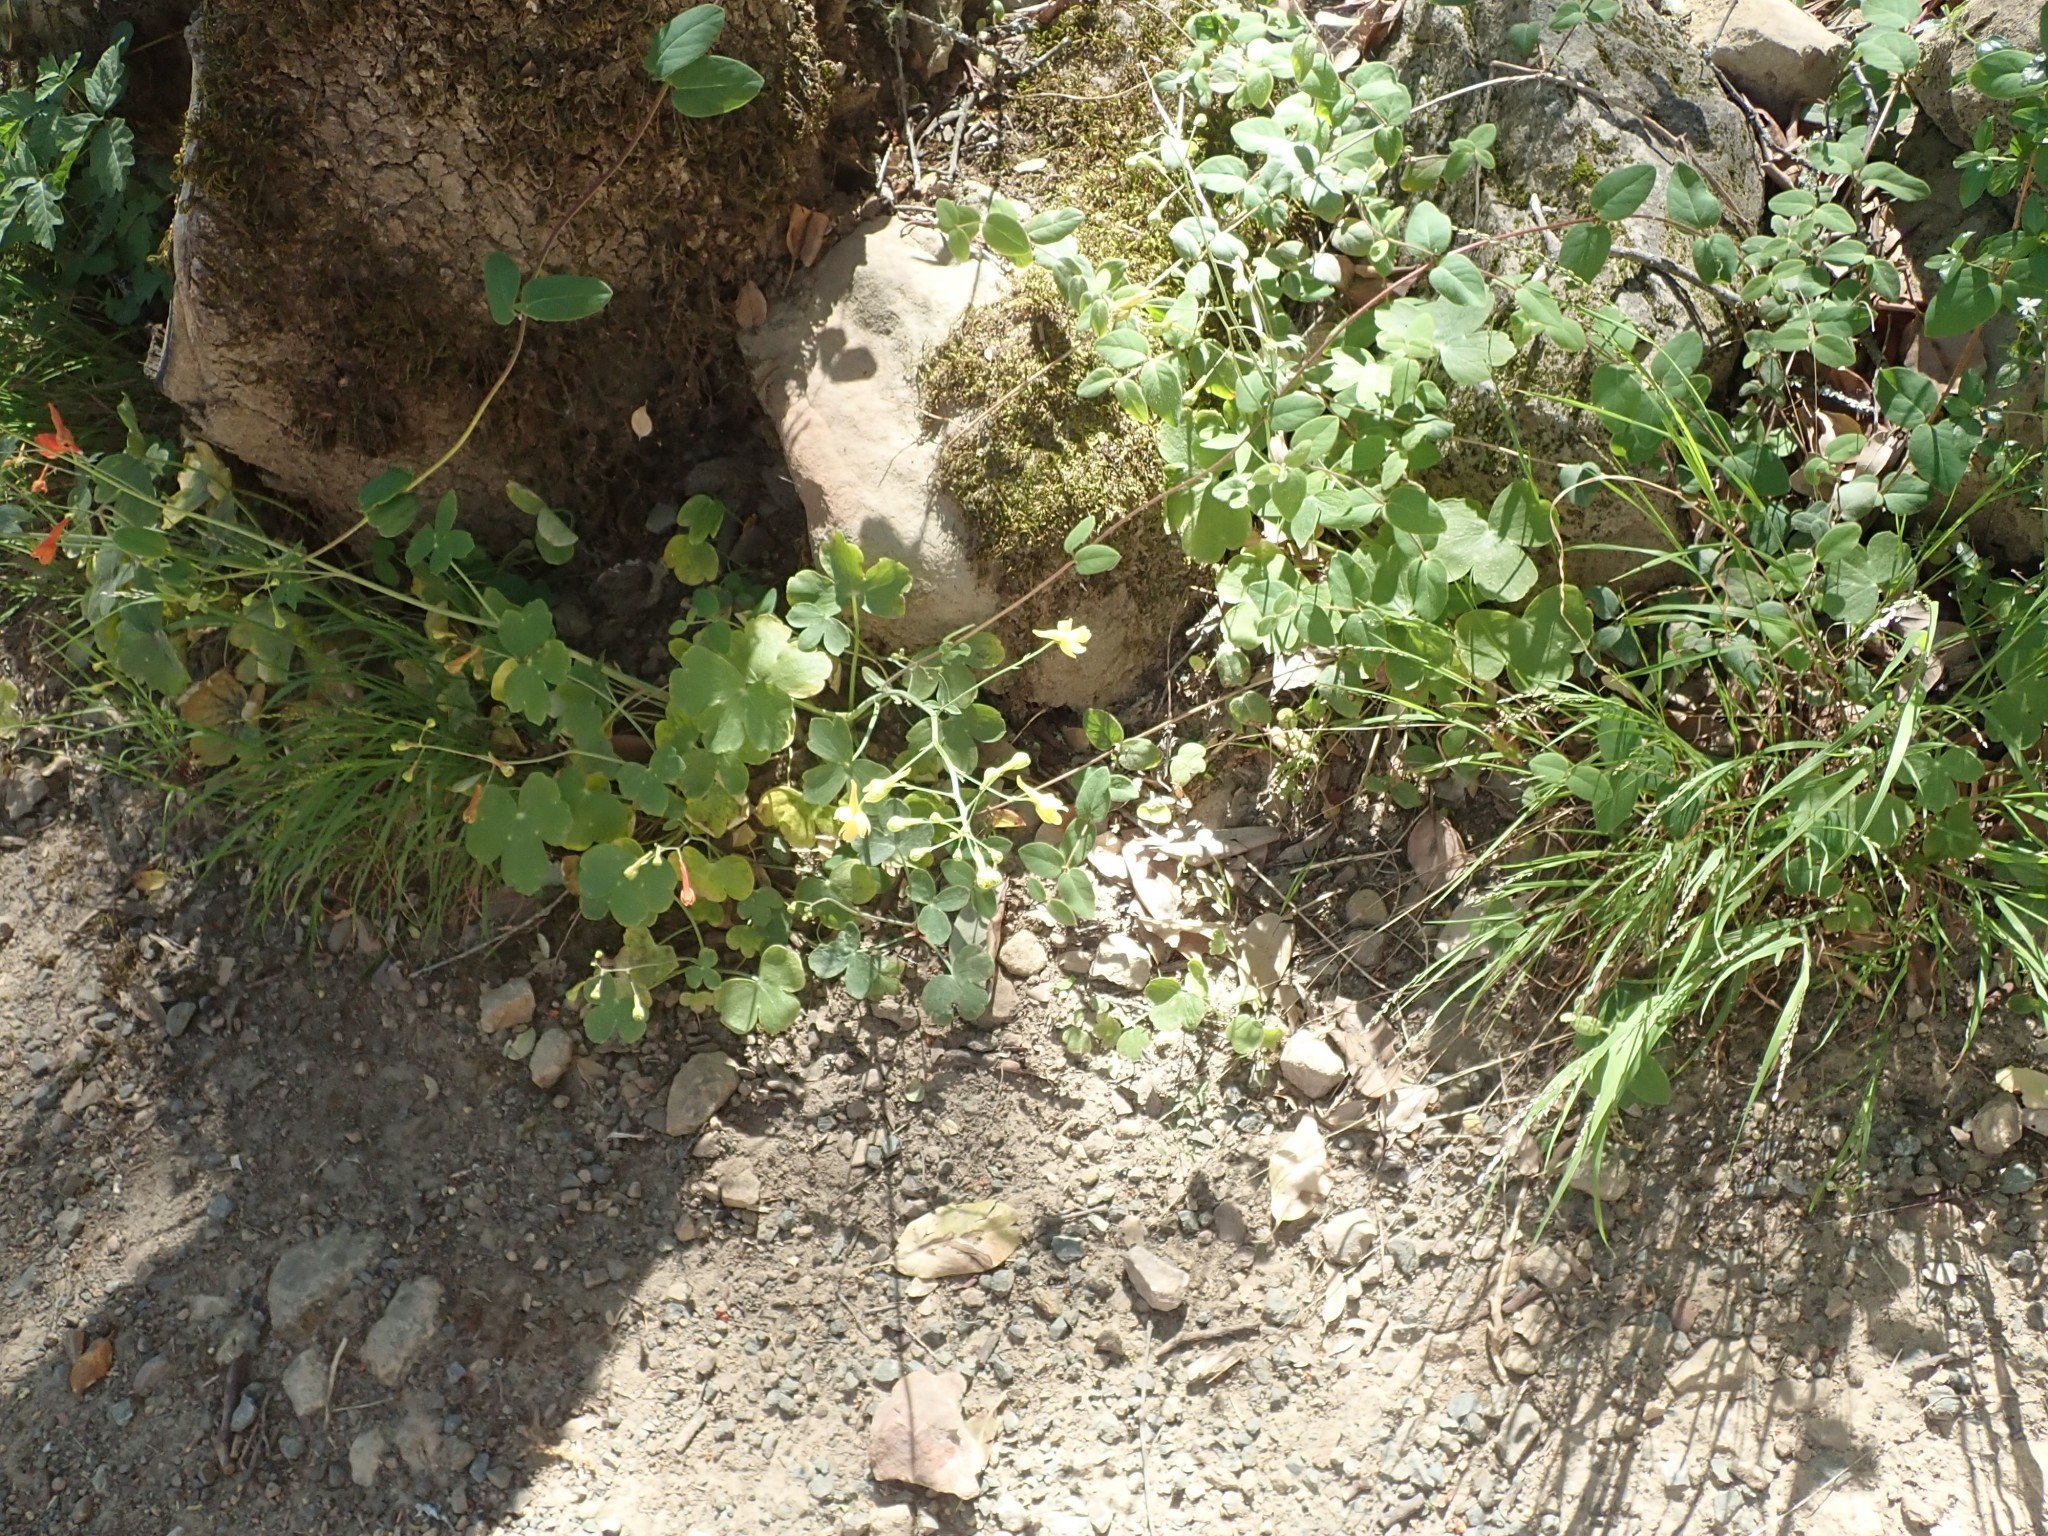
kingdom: Plantae
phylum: Tracheophyta
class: Magnoliopsida
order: Ranunculales
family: Ranunculaceae
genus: Delphinium
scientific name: Delphinium nudicaule
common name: Red larkspur
